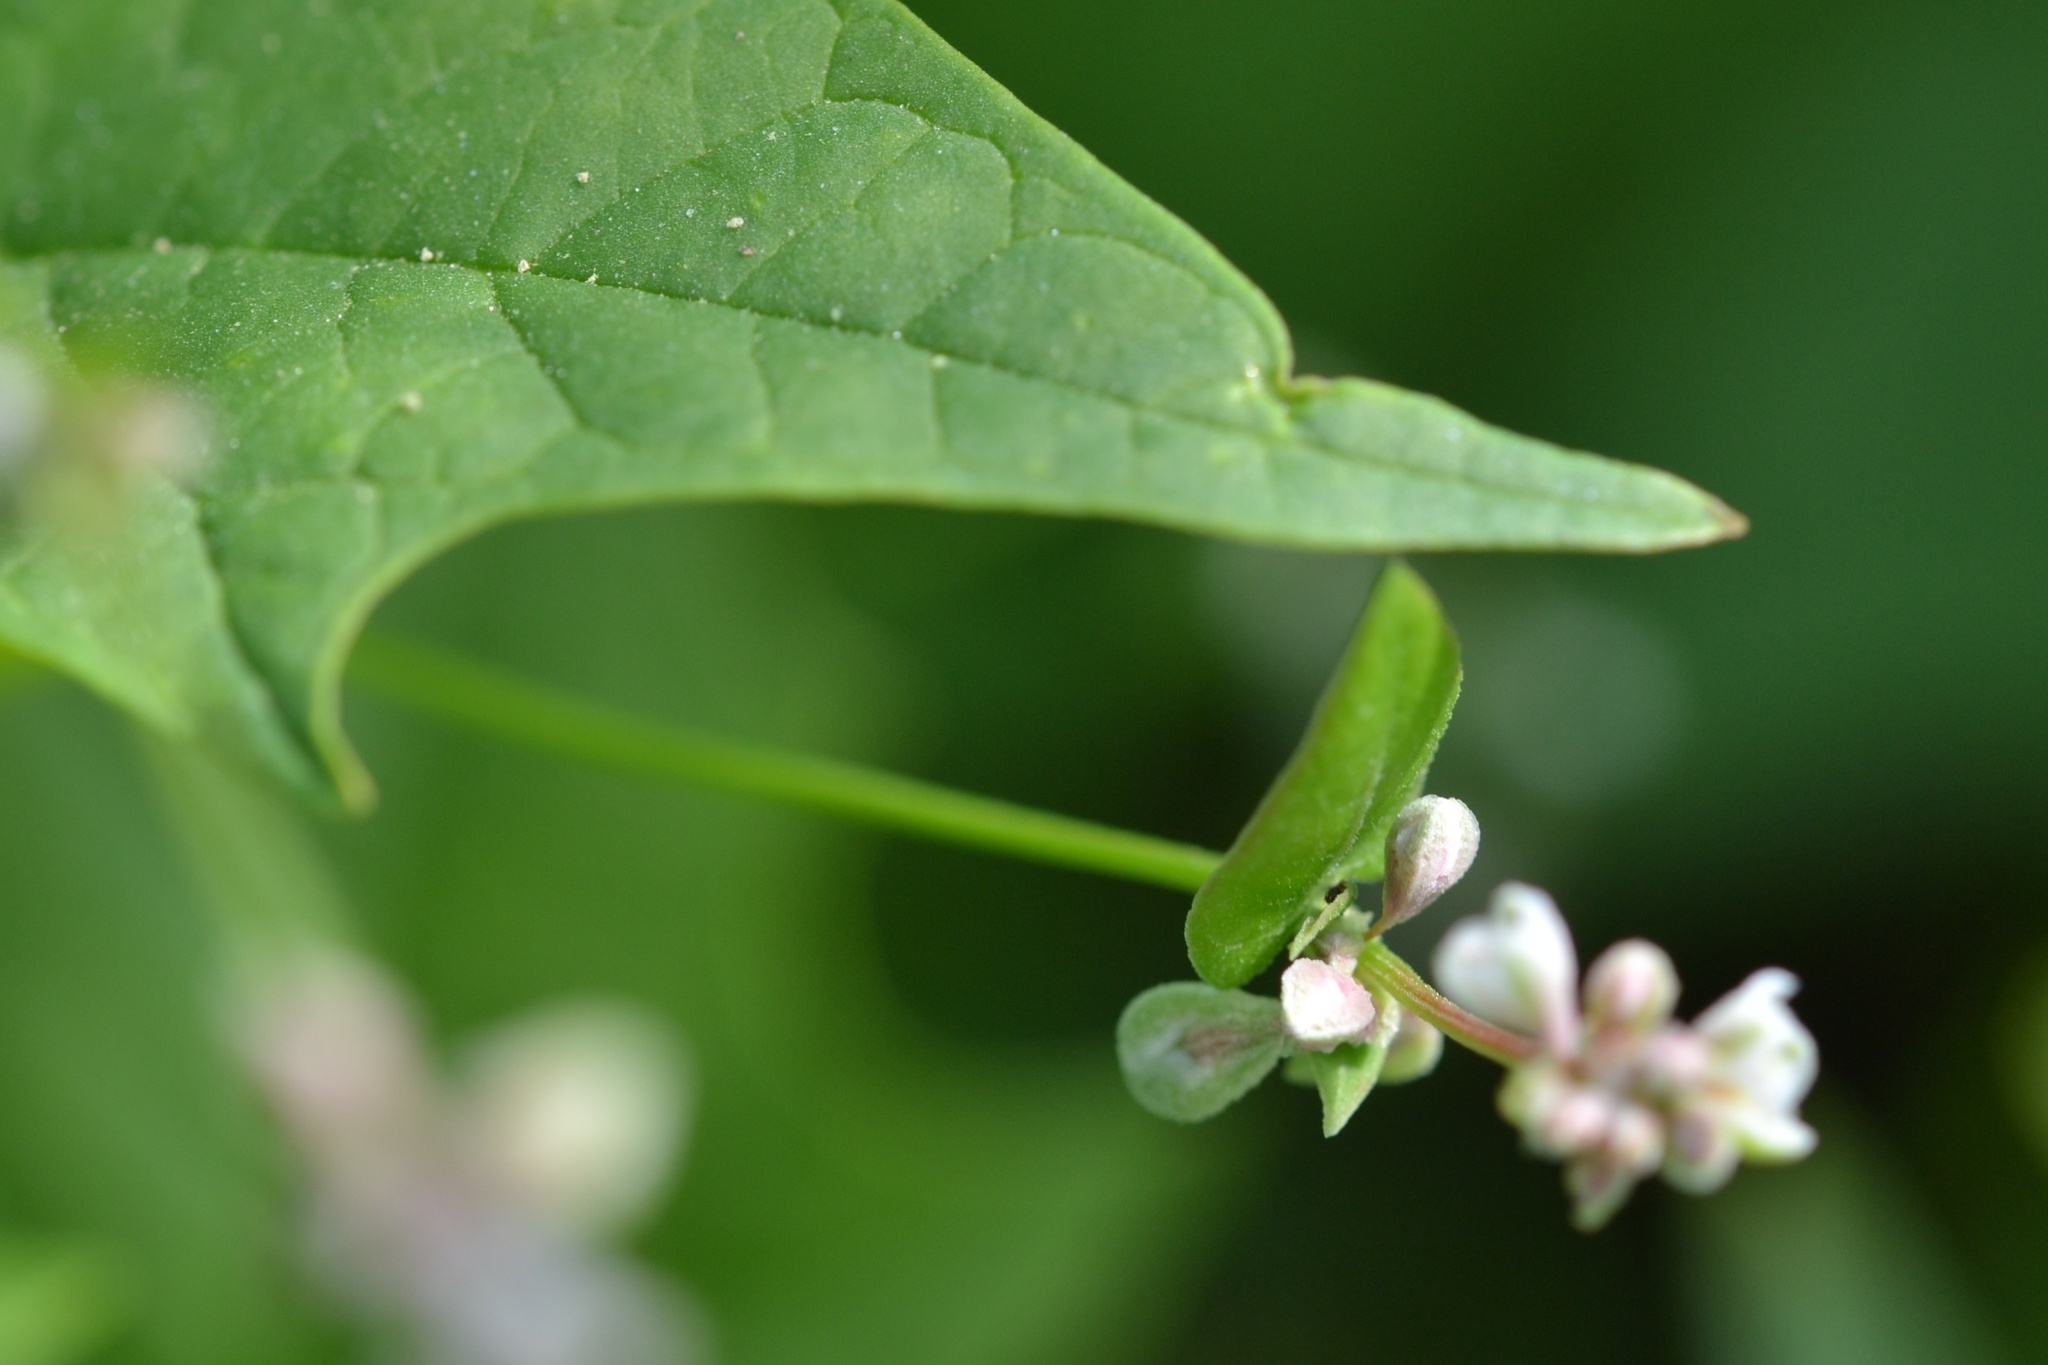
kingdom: Plantae
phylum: Tracheophyta
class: Magnoliopsida
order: Caryophyllales
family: Polygonaceae
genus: Fallopia
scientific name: Fallopia convolvulus
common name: Black bindweed
